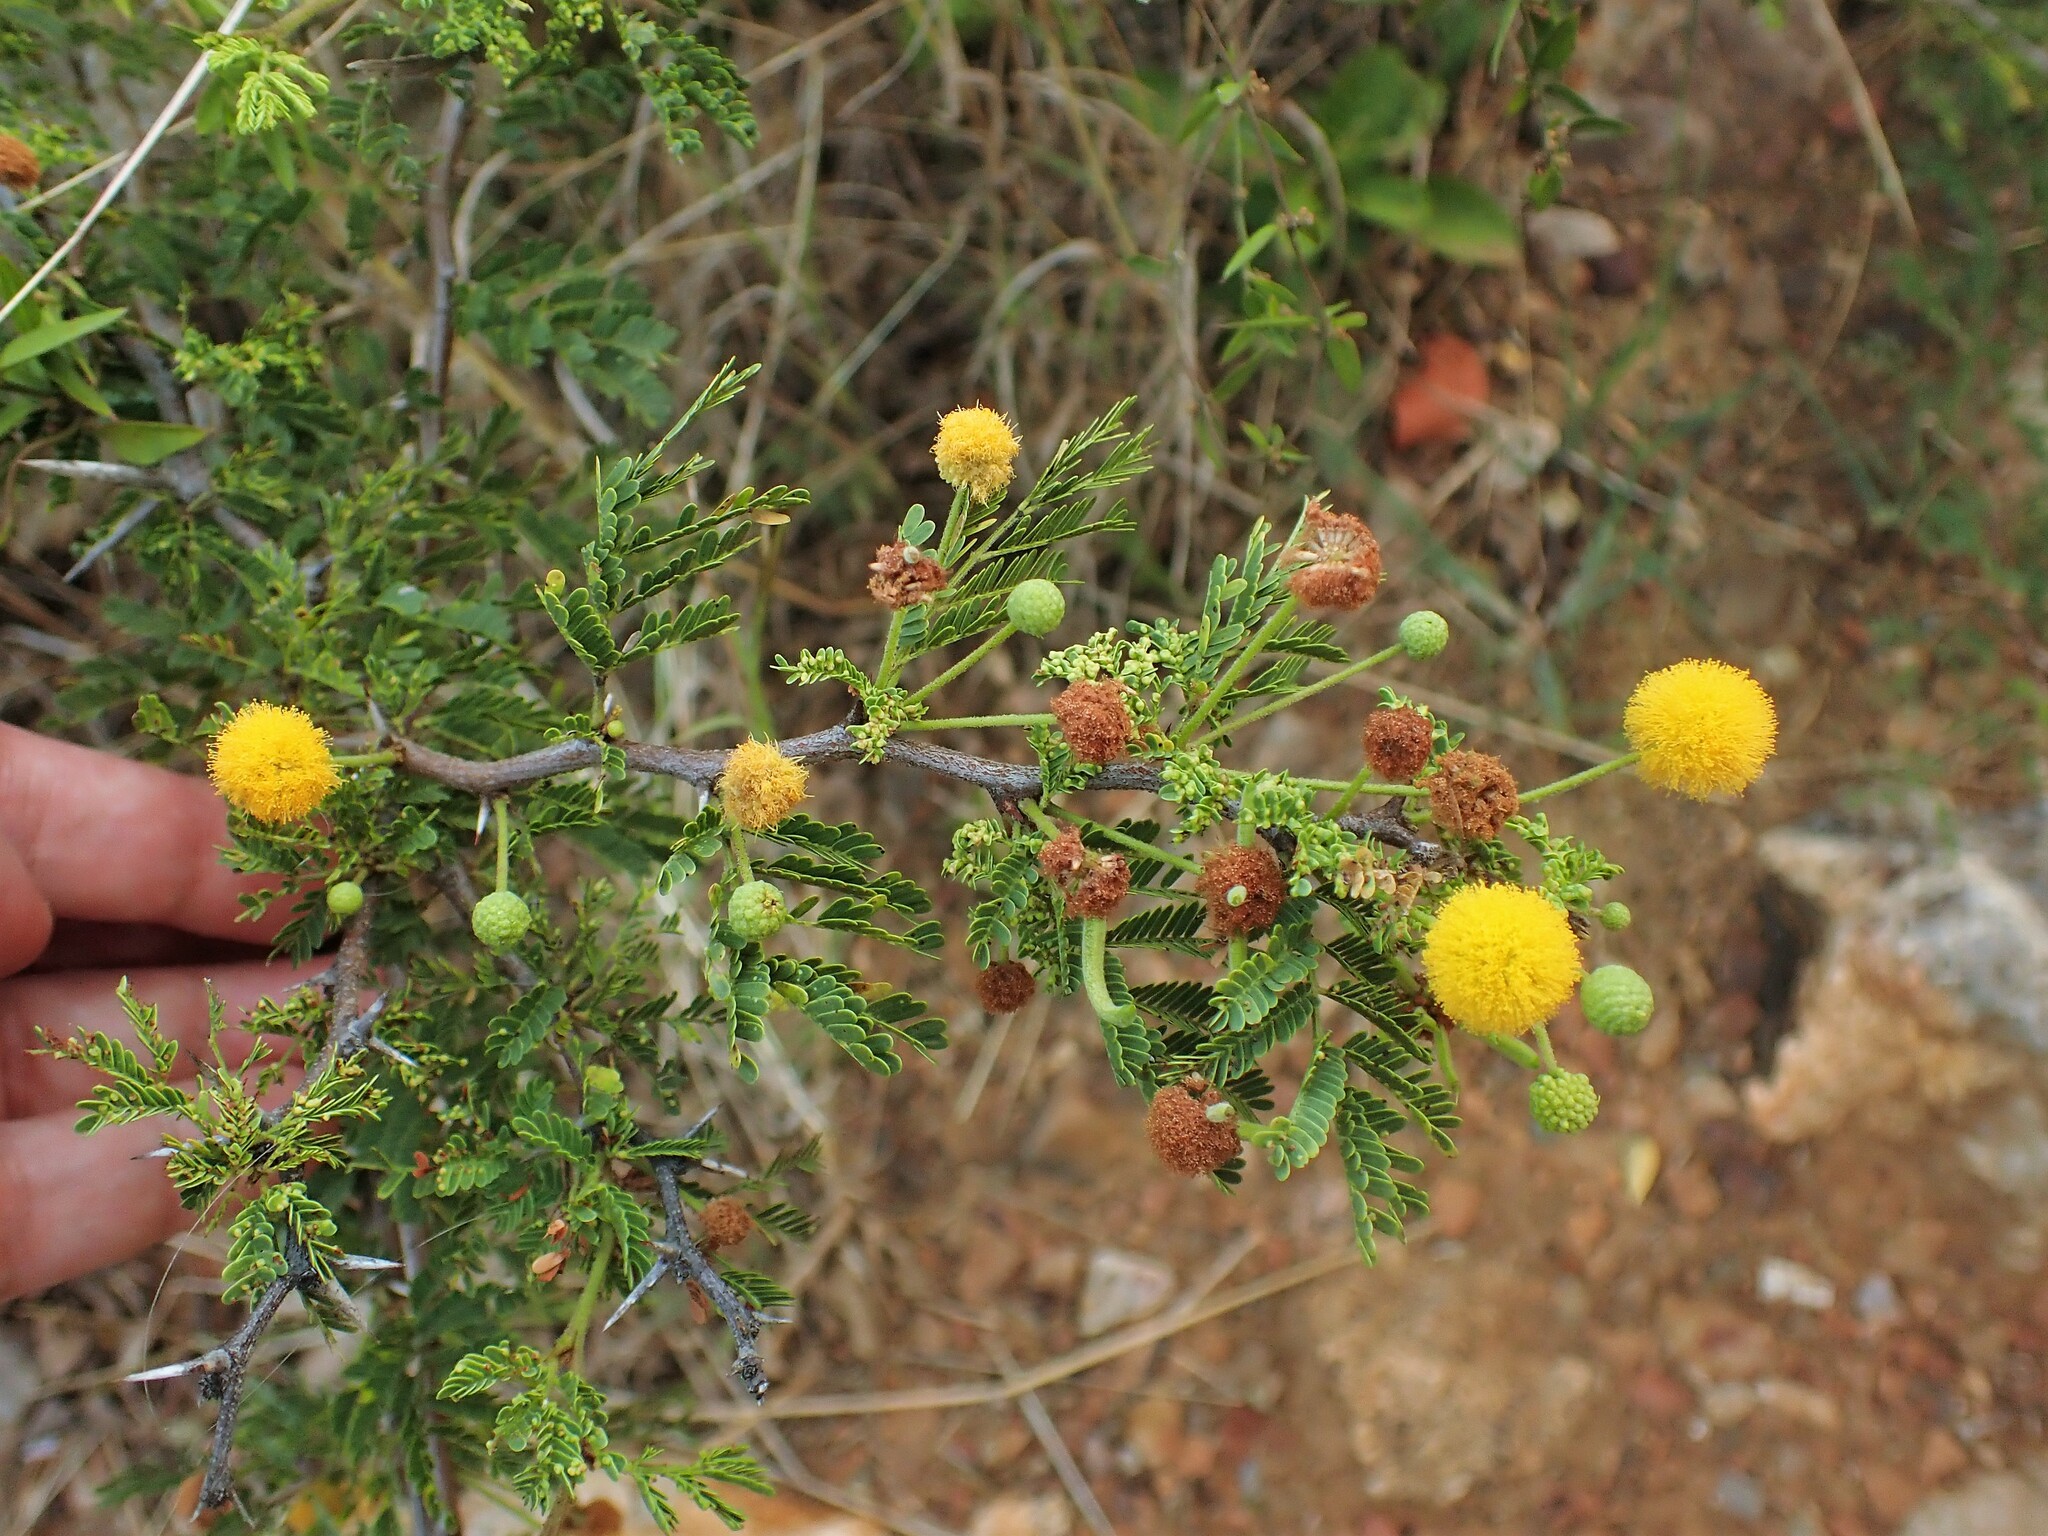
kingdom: Plantae
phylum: Tracheophyta
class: Magnoliopsida
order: Fabales
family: Fabaceae
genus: Vachellia
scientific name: Vachellia tortuosa
